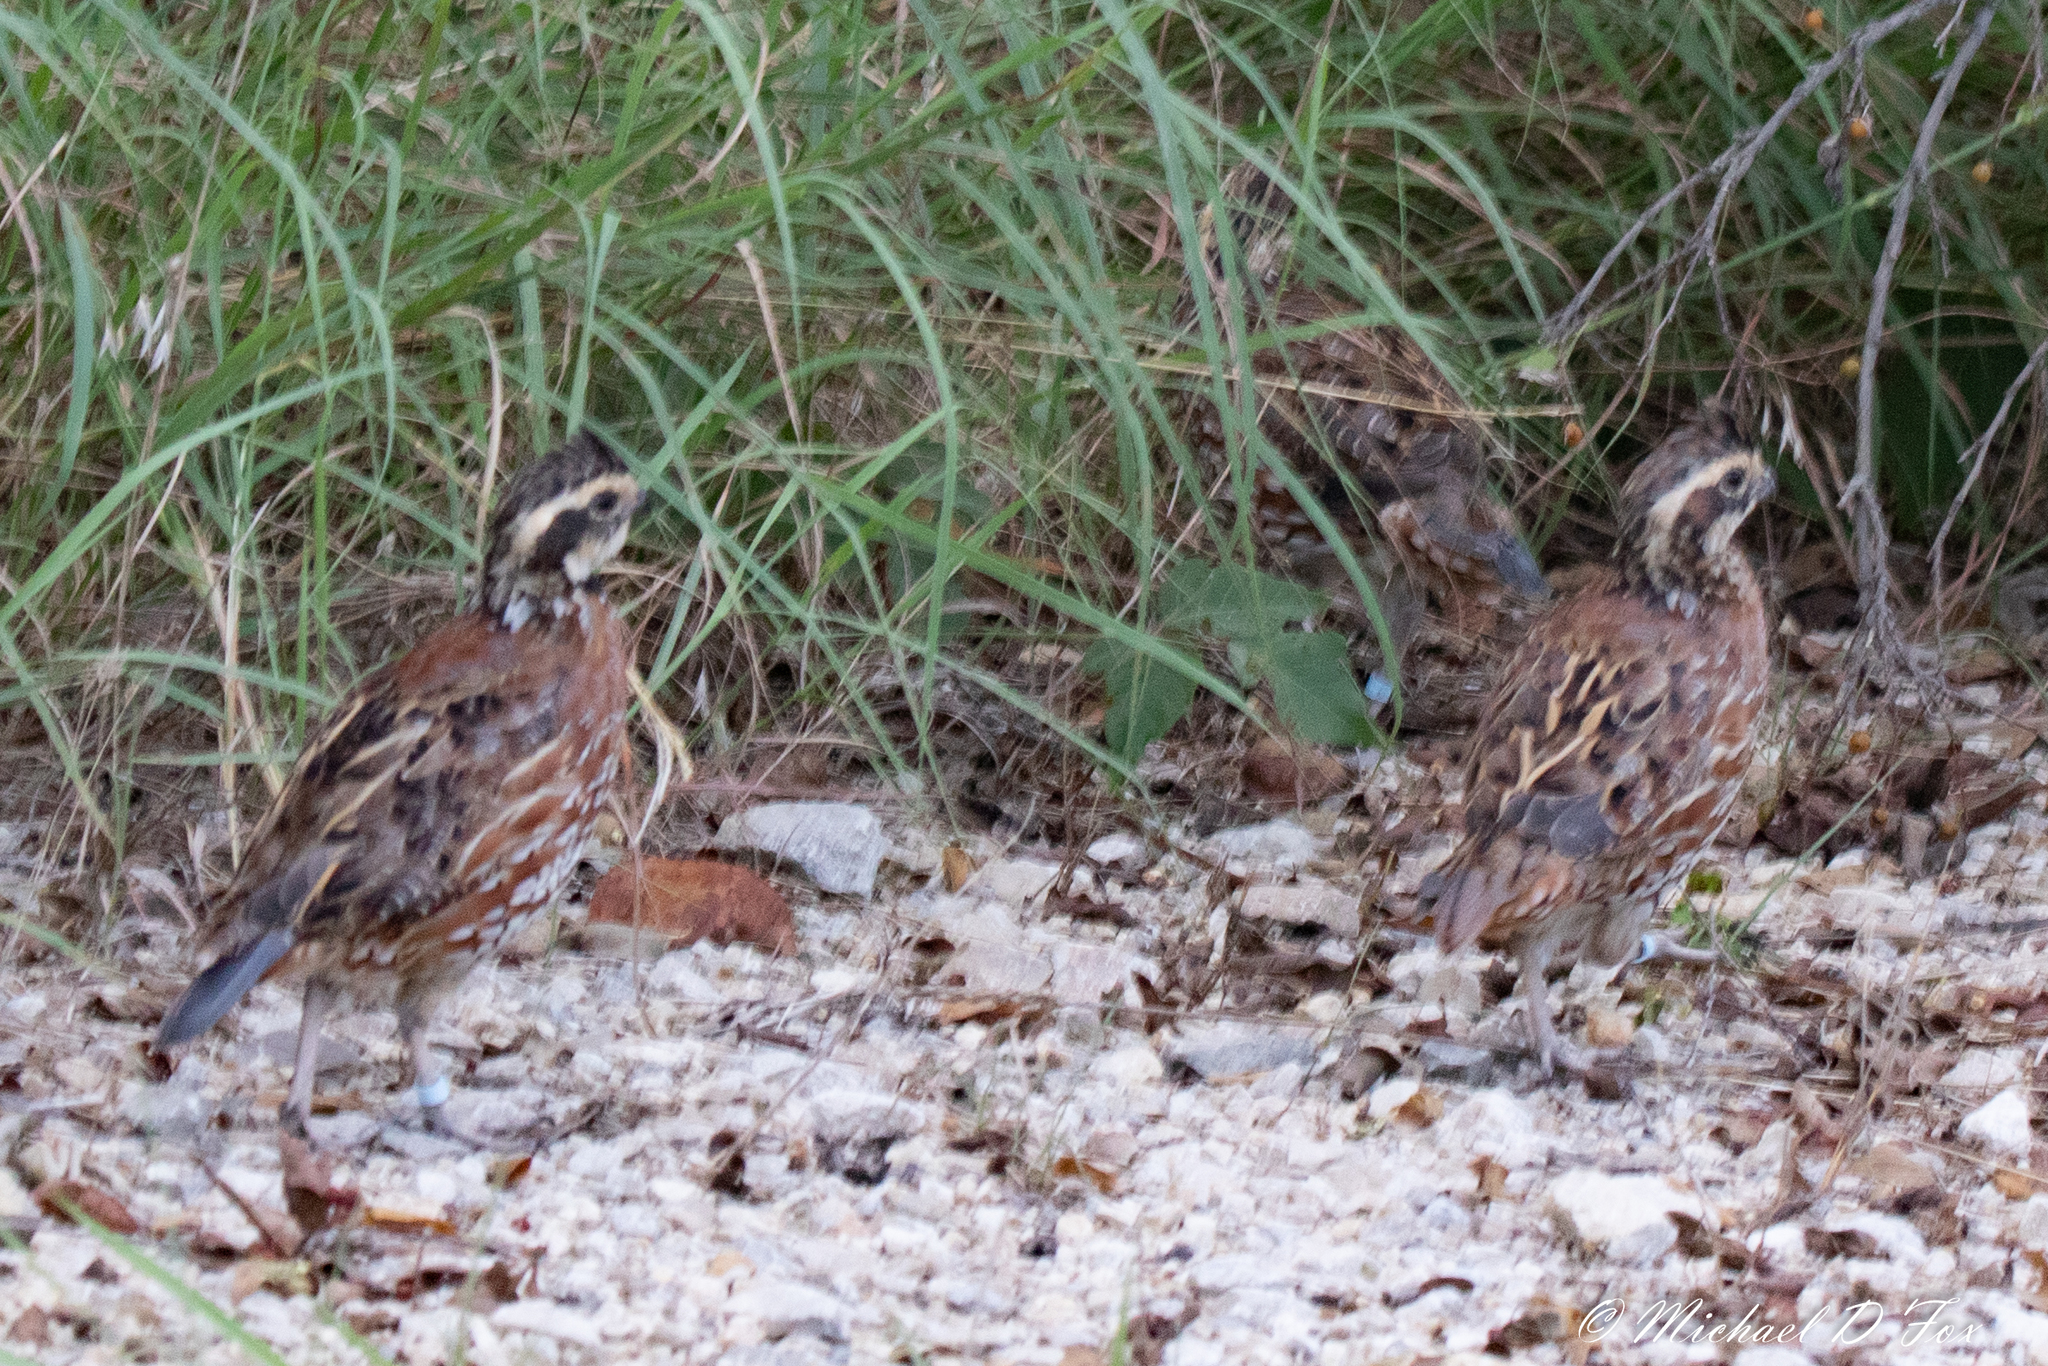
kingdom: Animalia
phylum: Chordata
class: Aves
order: Galliformes
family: Odontophoridae
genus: Colinus
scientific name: Colinus virginianus
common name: Northern bobwhite
